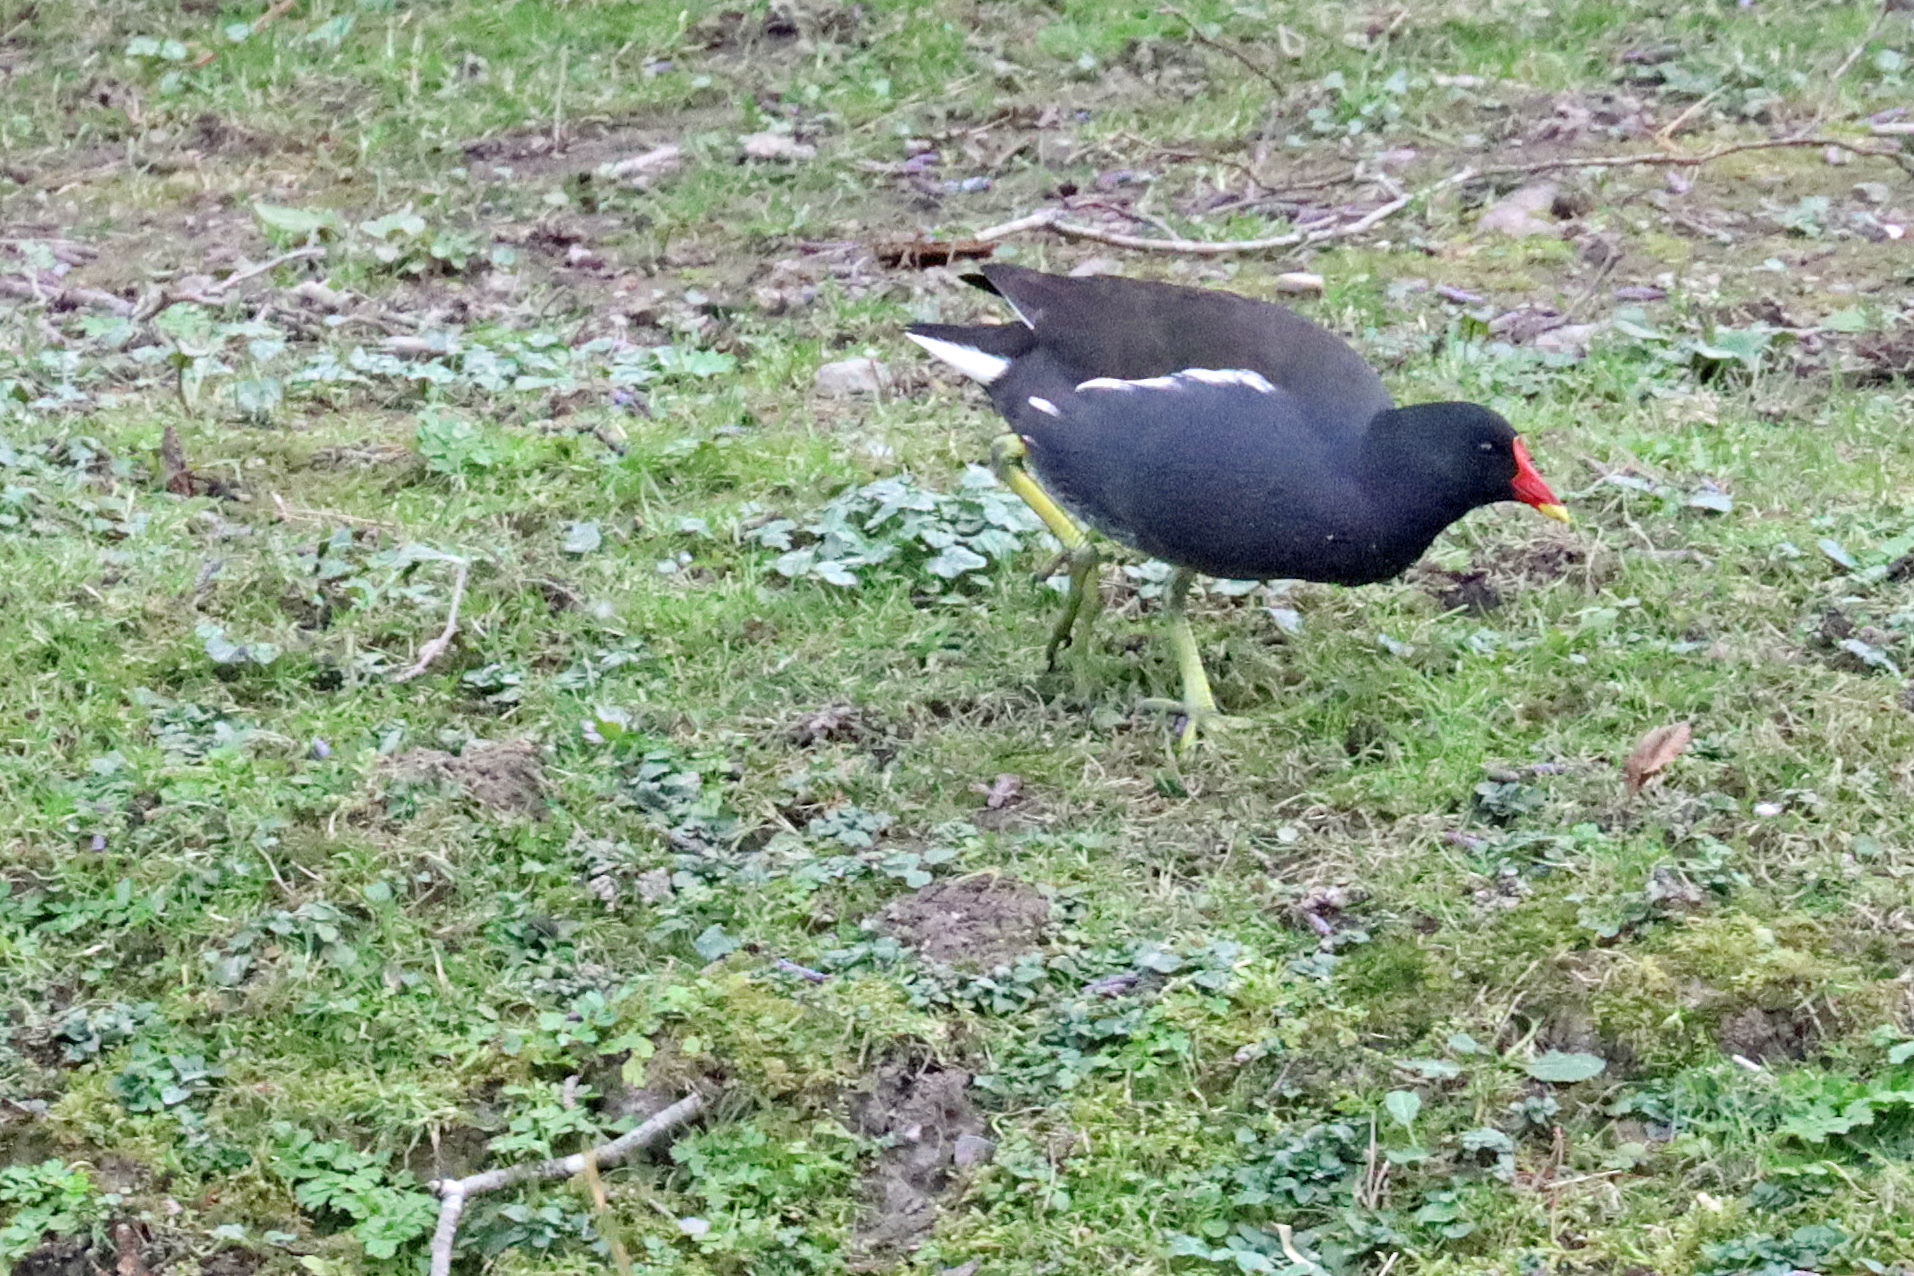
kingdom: Animalia
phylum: Chordata
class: Aves
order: Gruiformes
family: Rallidae
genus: Gallinula
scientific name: Gallinula chloropus
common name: Common moorhen
